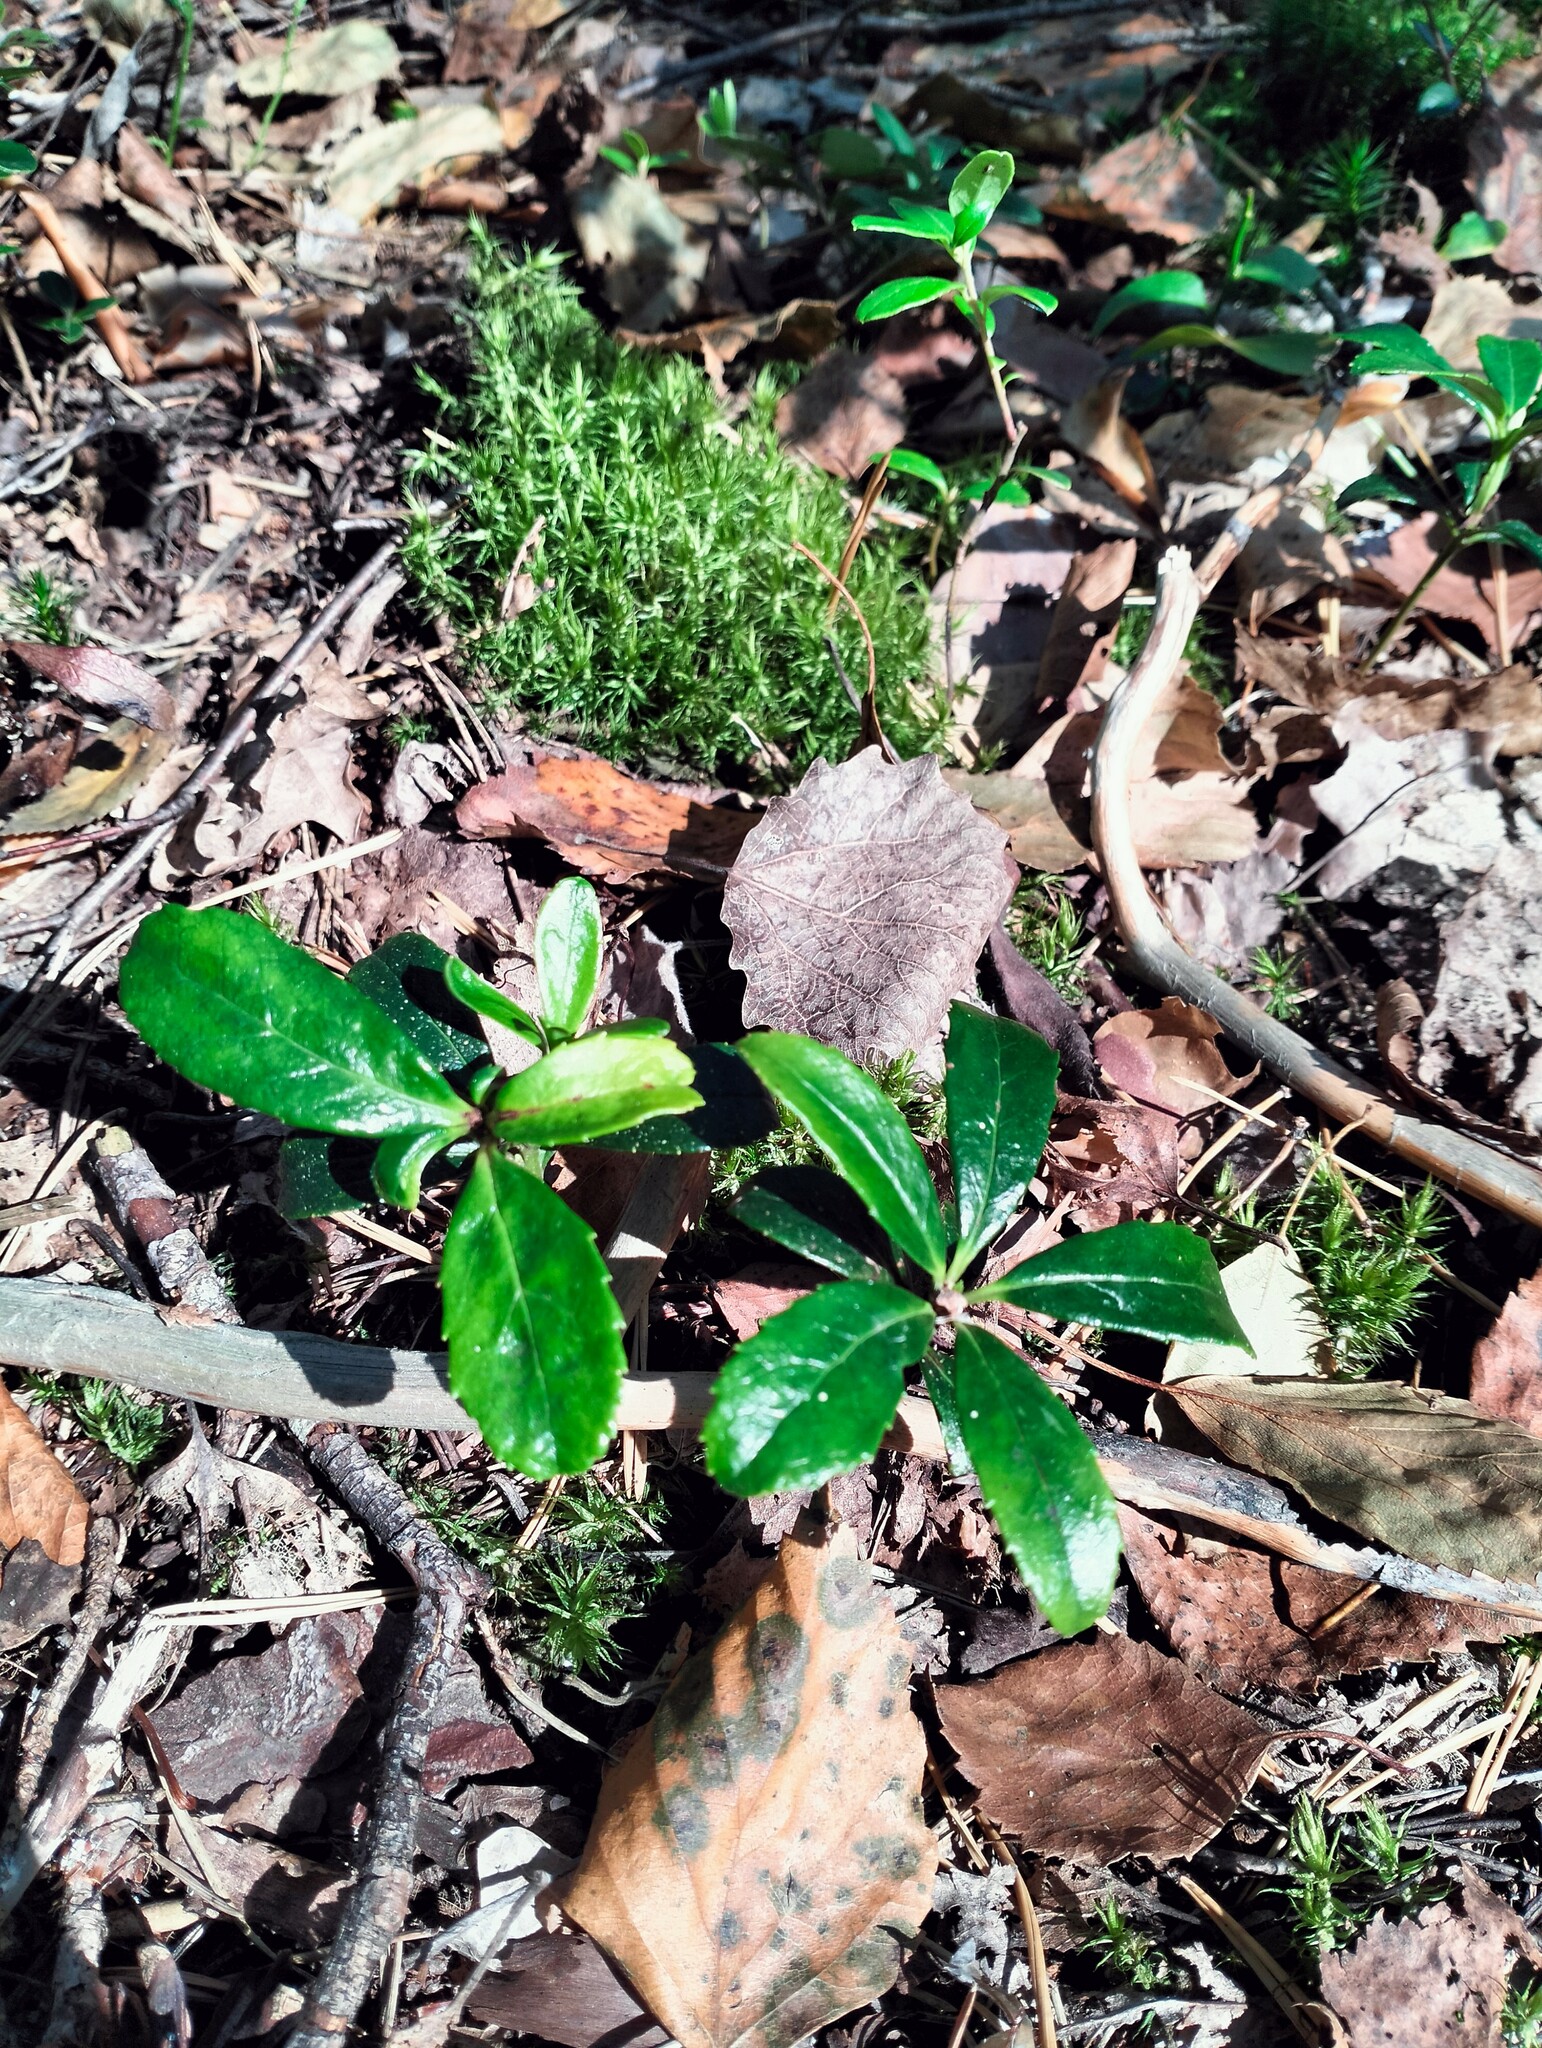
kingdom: Plantae
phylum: Tracheophyta
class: Magnoliopsida
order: Ericales
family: Ericaceae
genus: Chimaphila
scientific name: Chimaphila umbellata
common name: Pipsissewa
